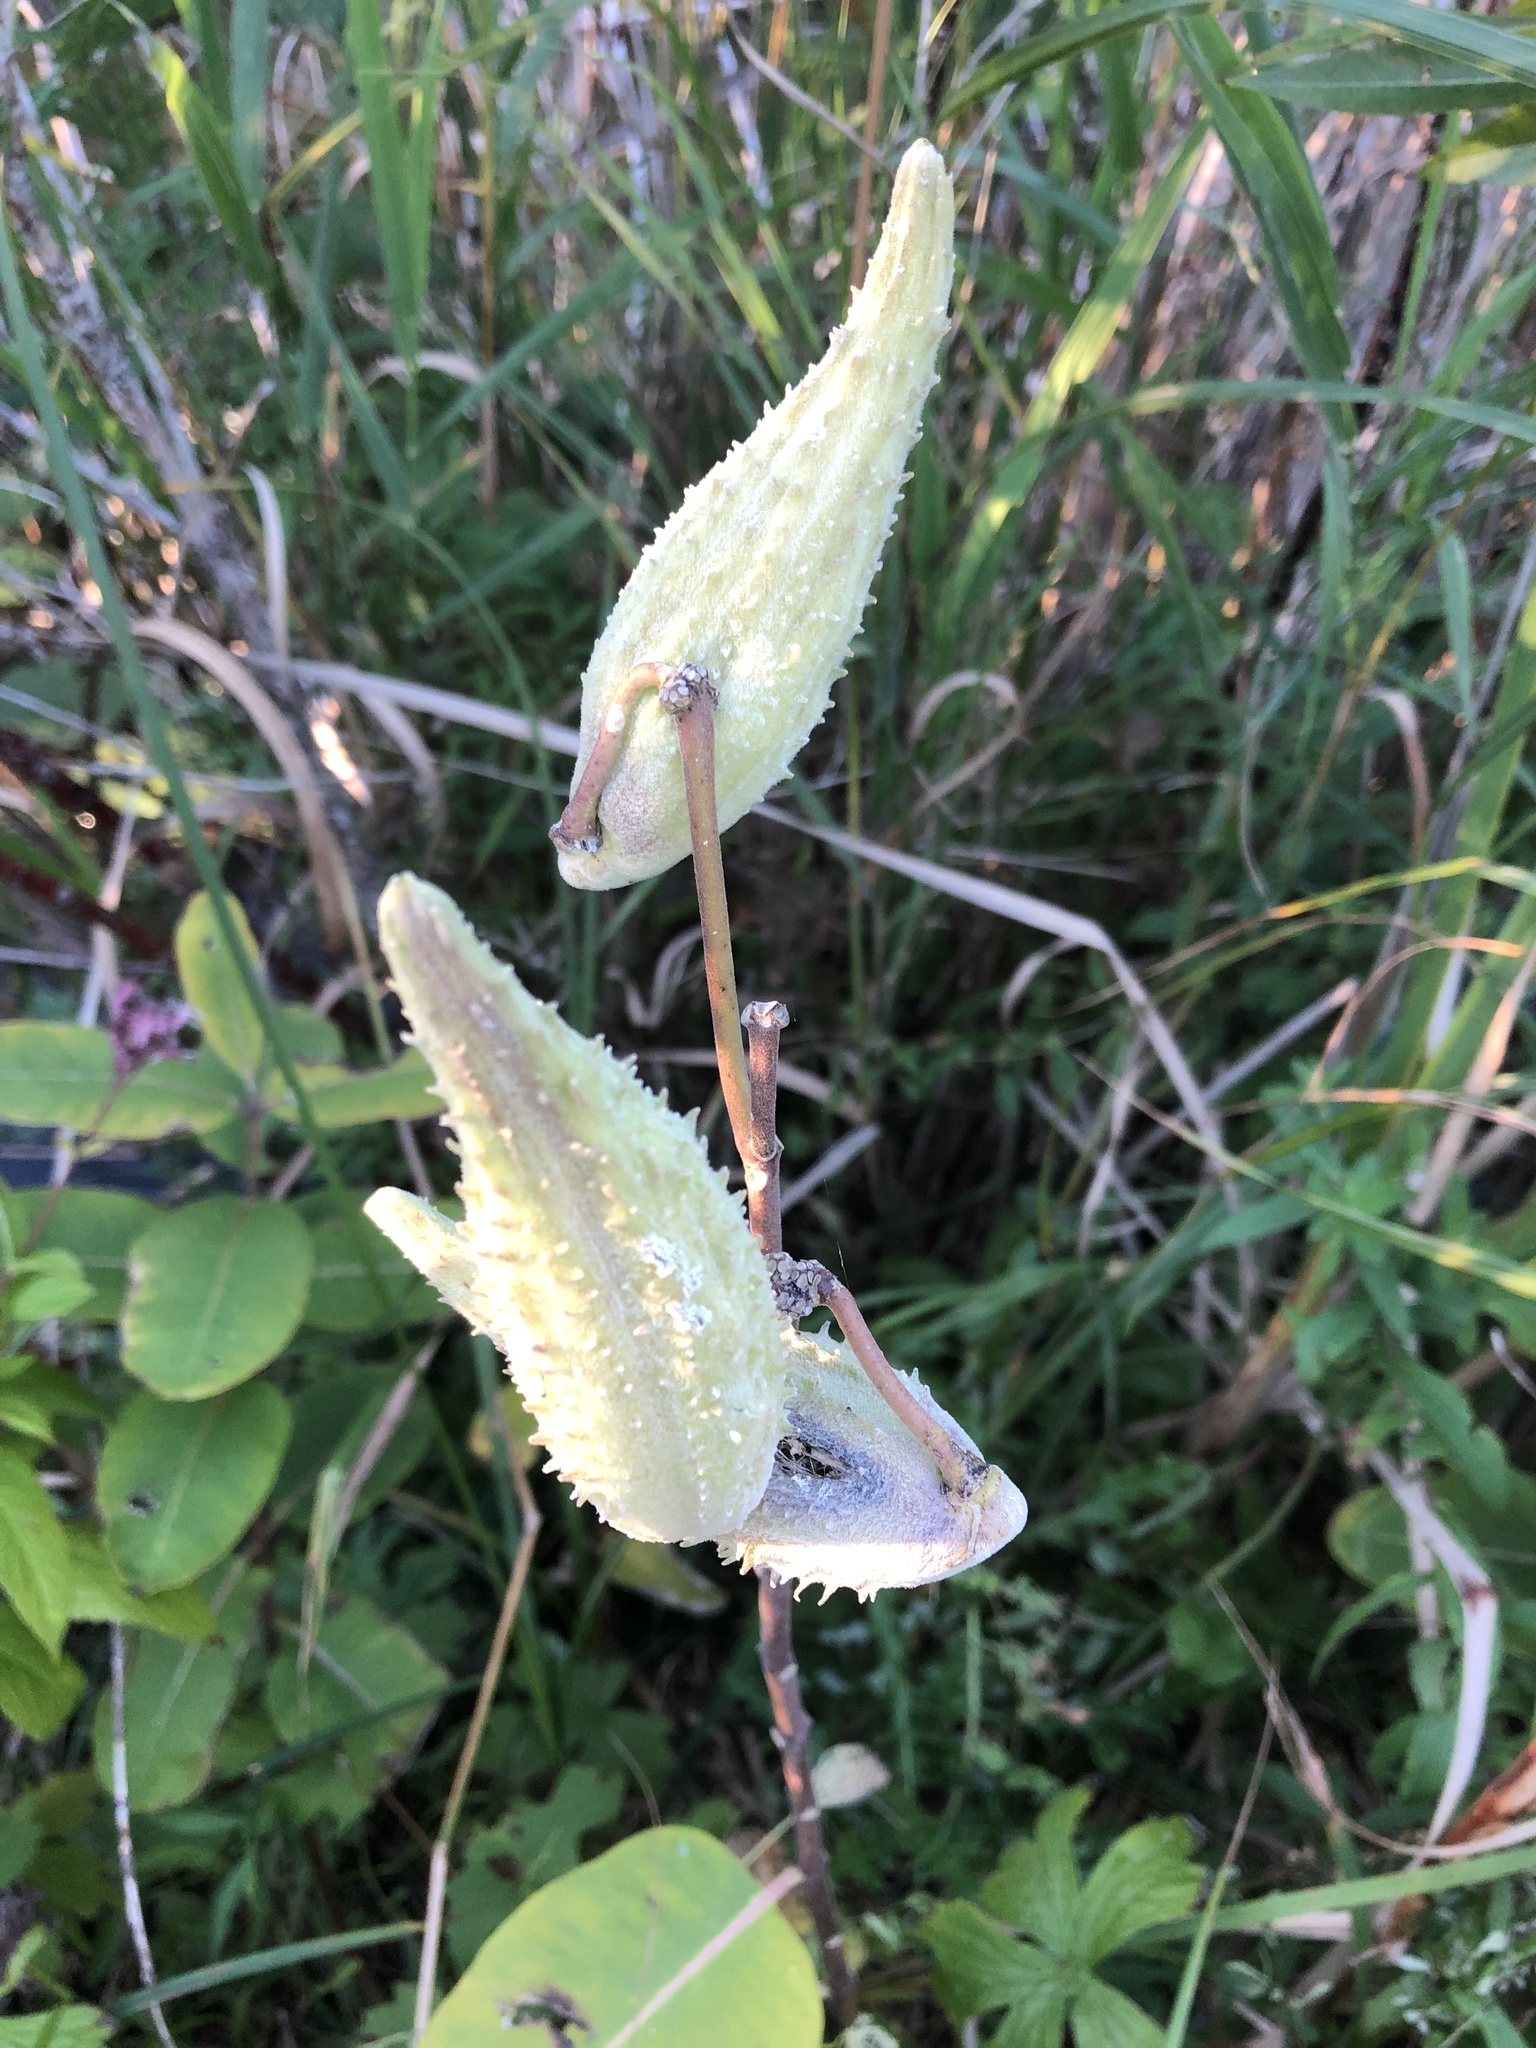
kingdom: Plantae
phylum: Tracheophyta
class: Magnoliopsida
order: Gentianales
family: Apocynaceae
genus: Asclepias
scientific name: Asclepias syriaca
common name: Common milkweed
